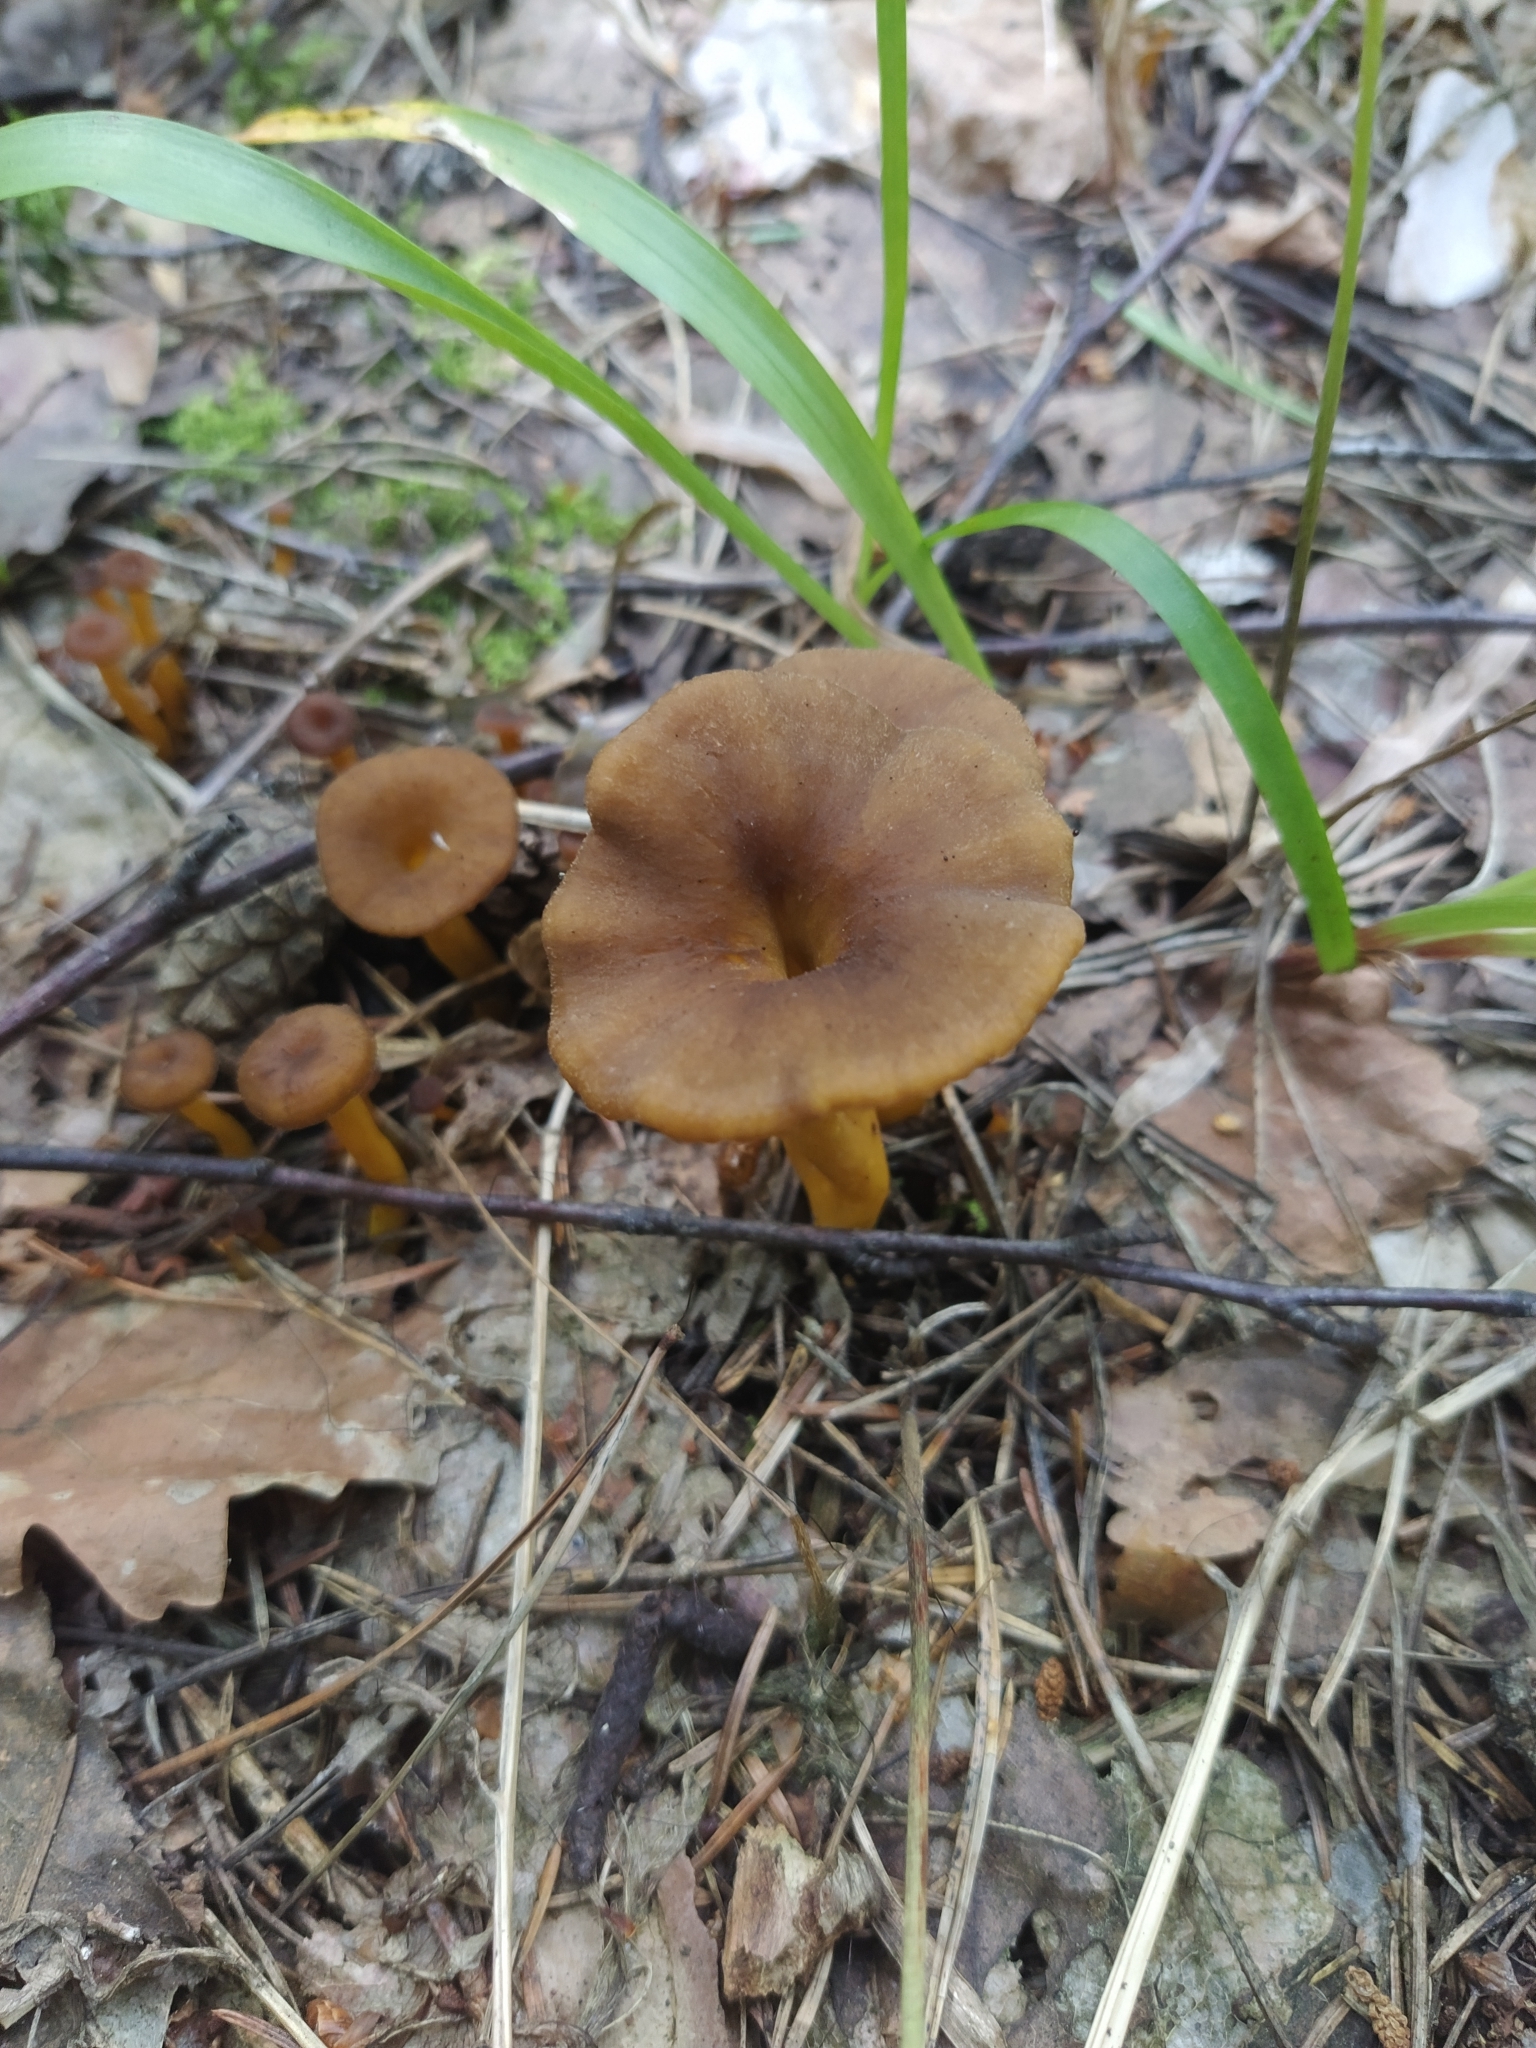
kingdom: Fungi
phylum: Basidiomycota
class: Agaricomycetes
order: Cantharellales
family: Hydnaceae
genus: Craterellus
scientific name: Craterellus tubaeformis
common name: Yellowfoot
